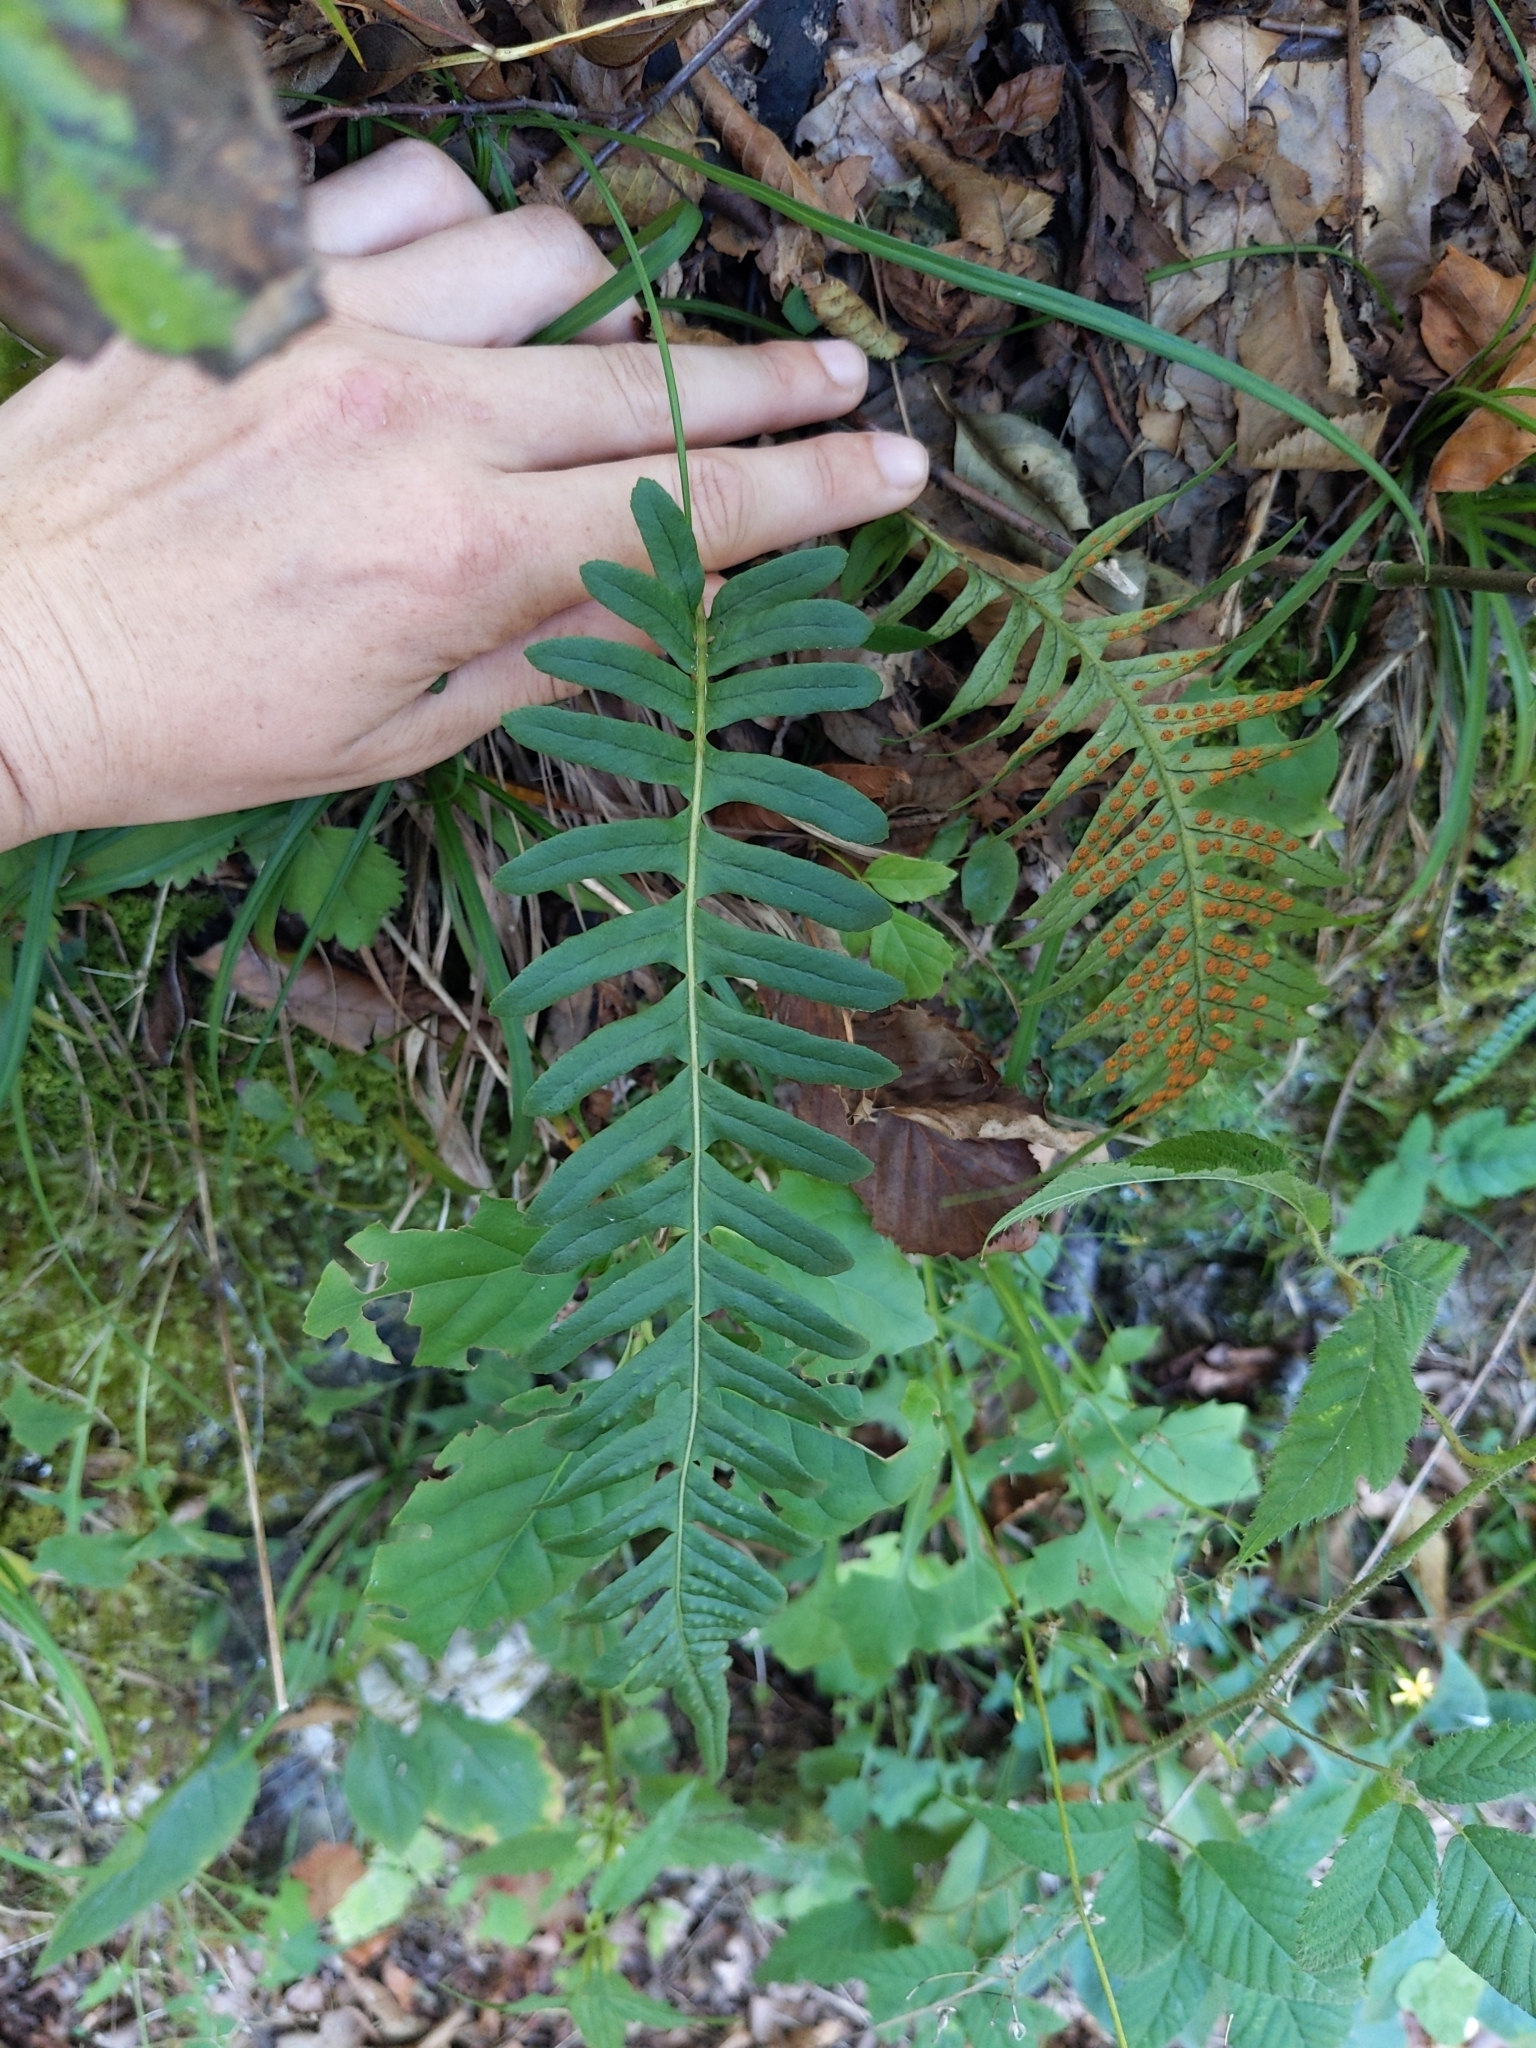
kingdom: Plantae
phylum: Tracheophyta
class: Polypodiopsida
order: Polypodiales
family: Polypodiaceae
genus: Polypodium
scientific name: Polypodium vulgare
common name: Common polypody
